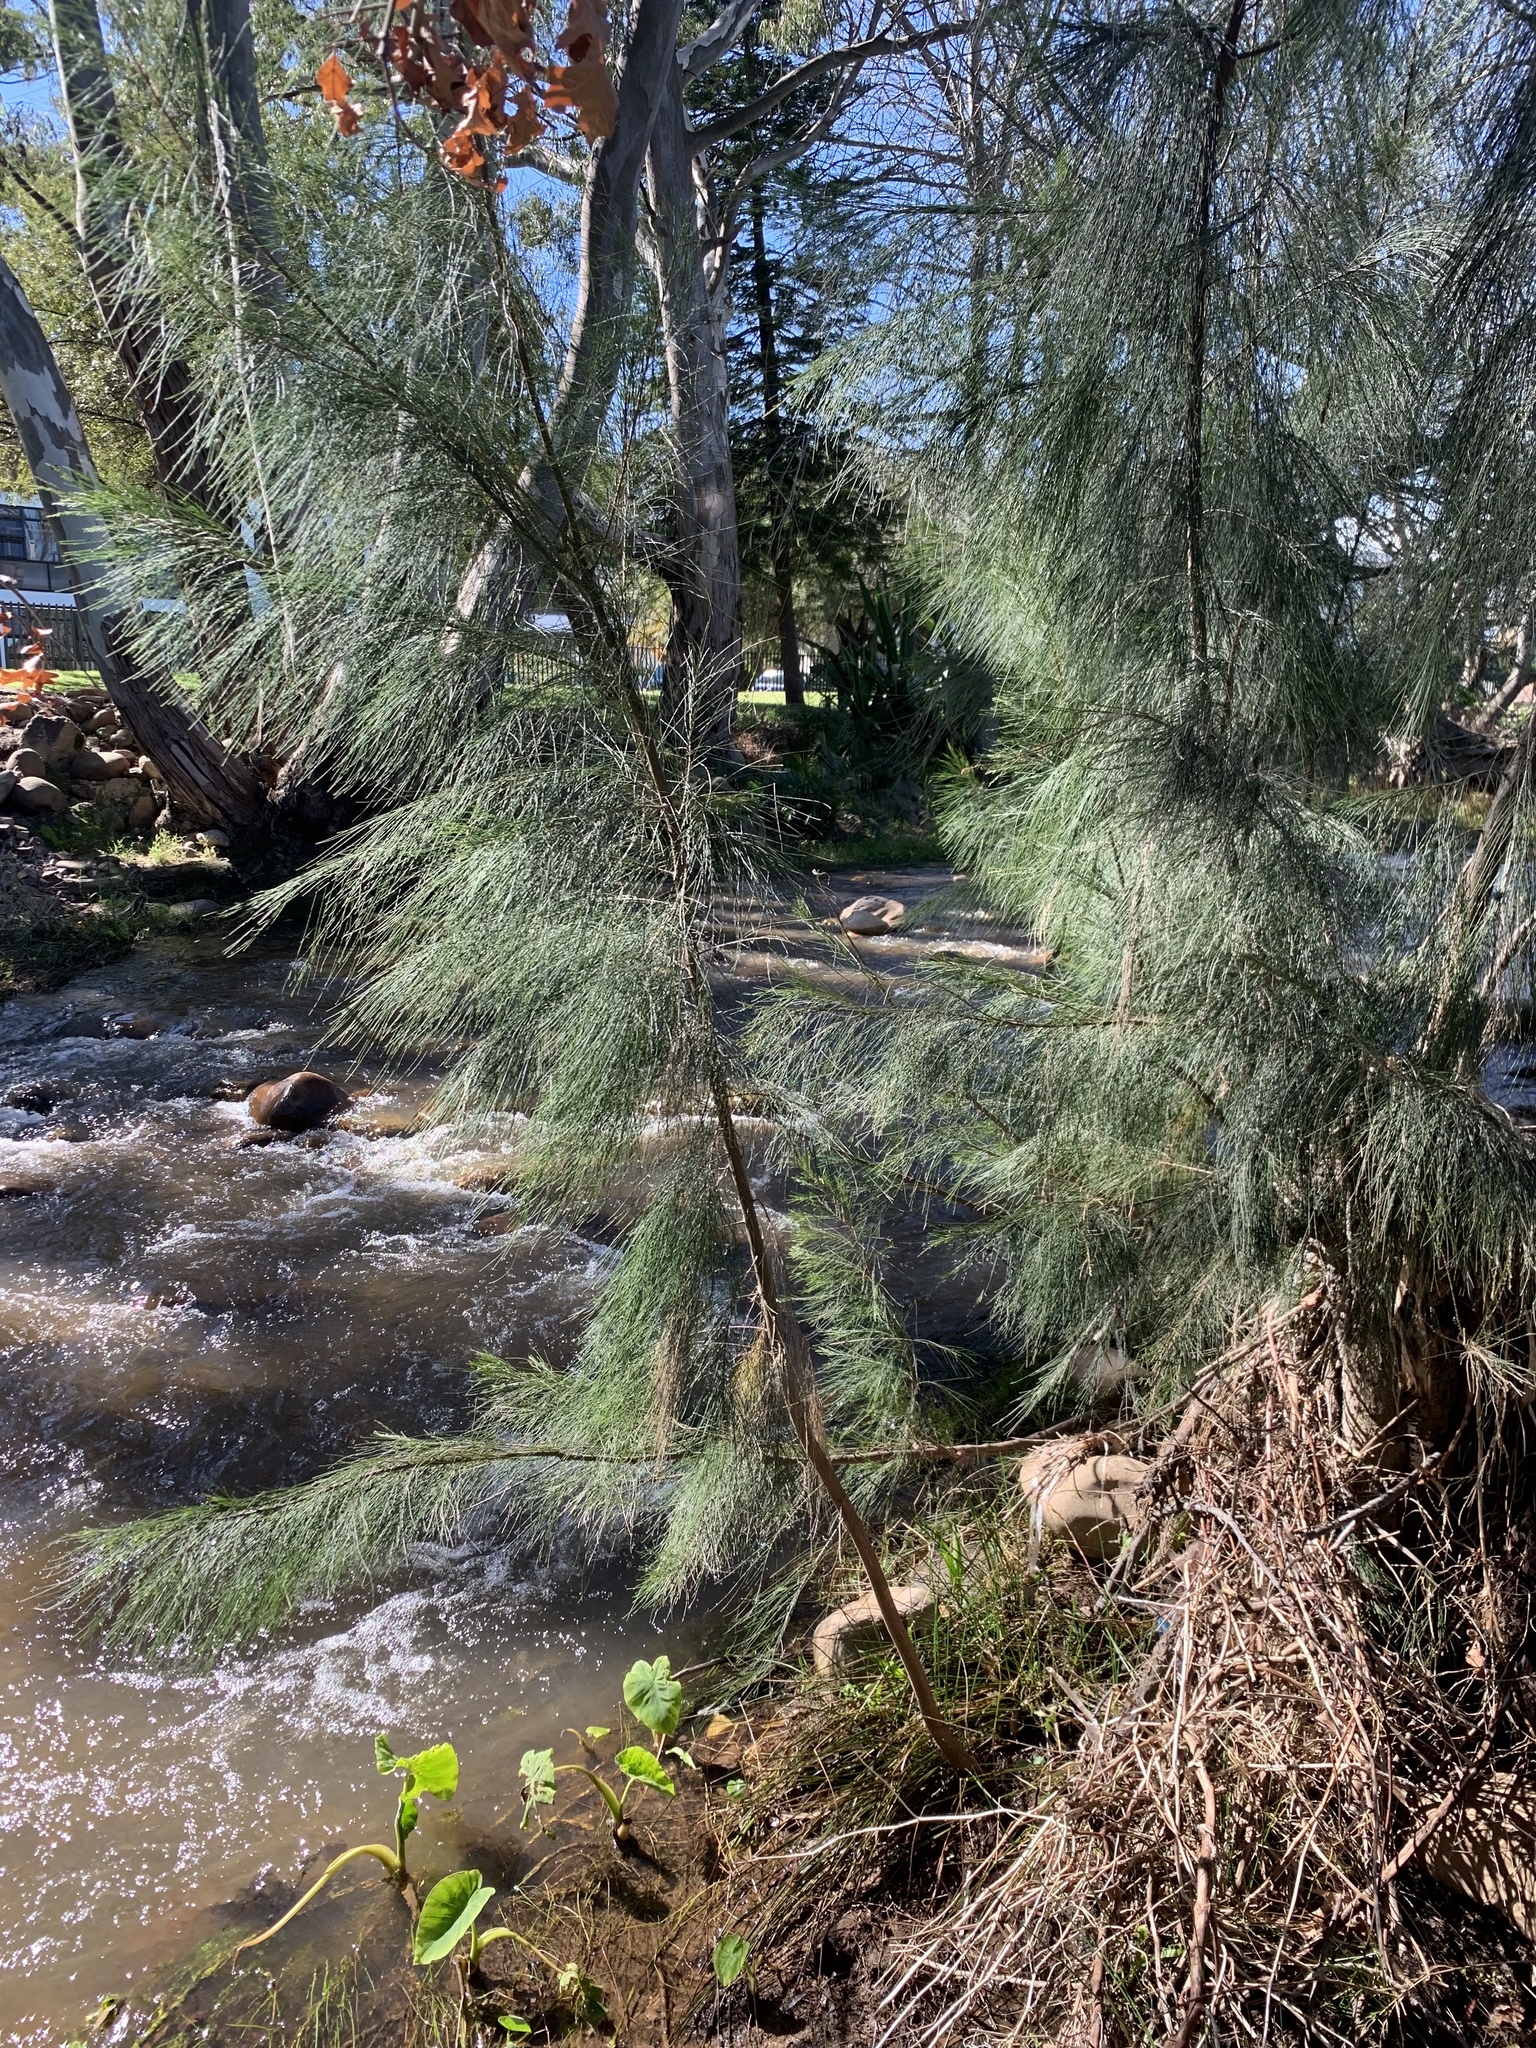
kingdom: Plantae
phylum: Tracheophyta
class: Magnoliopsida
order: Fagales
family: Casuarinaceae
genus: Casuarina
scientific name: Casuarina cunninghamiana
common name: River sheoak
